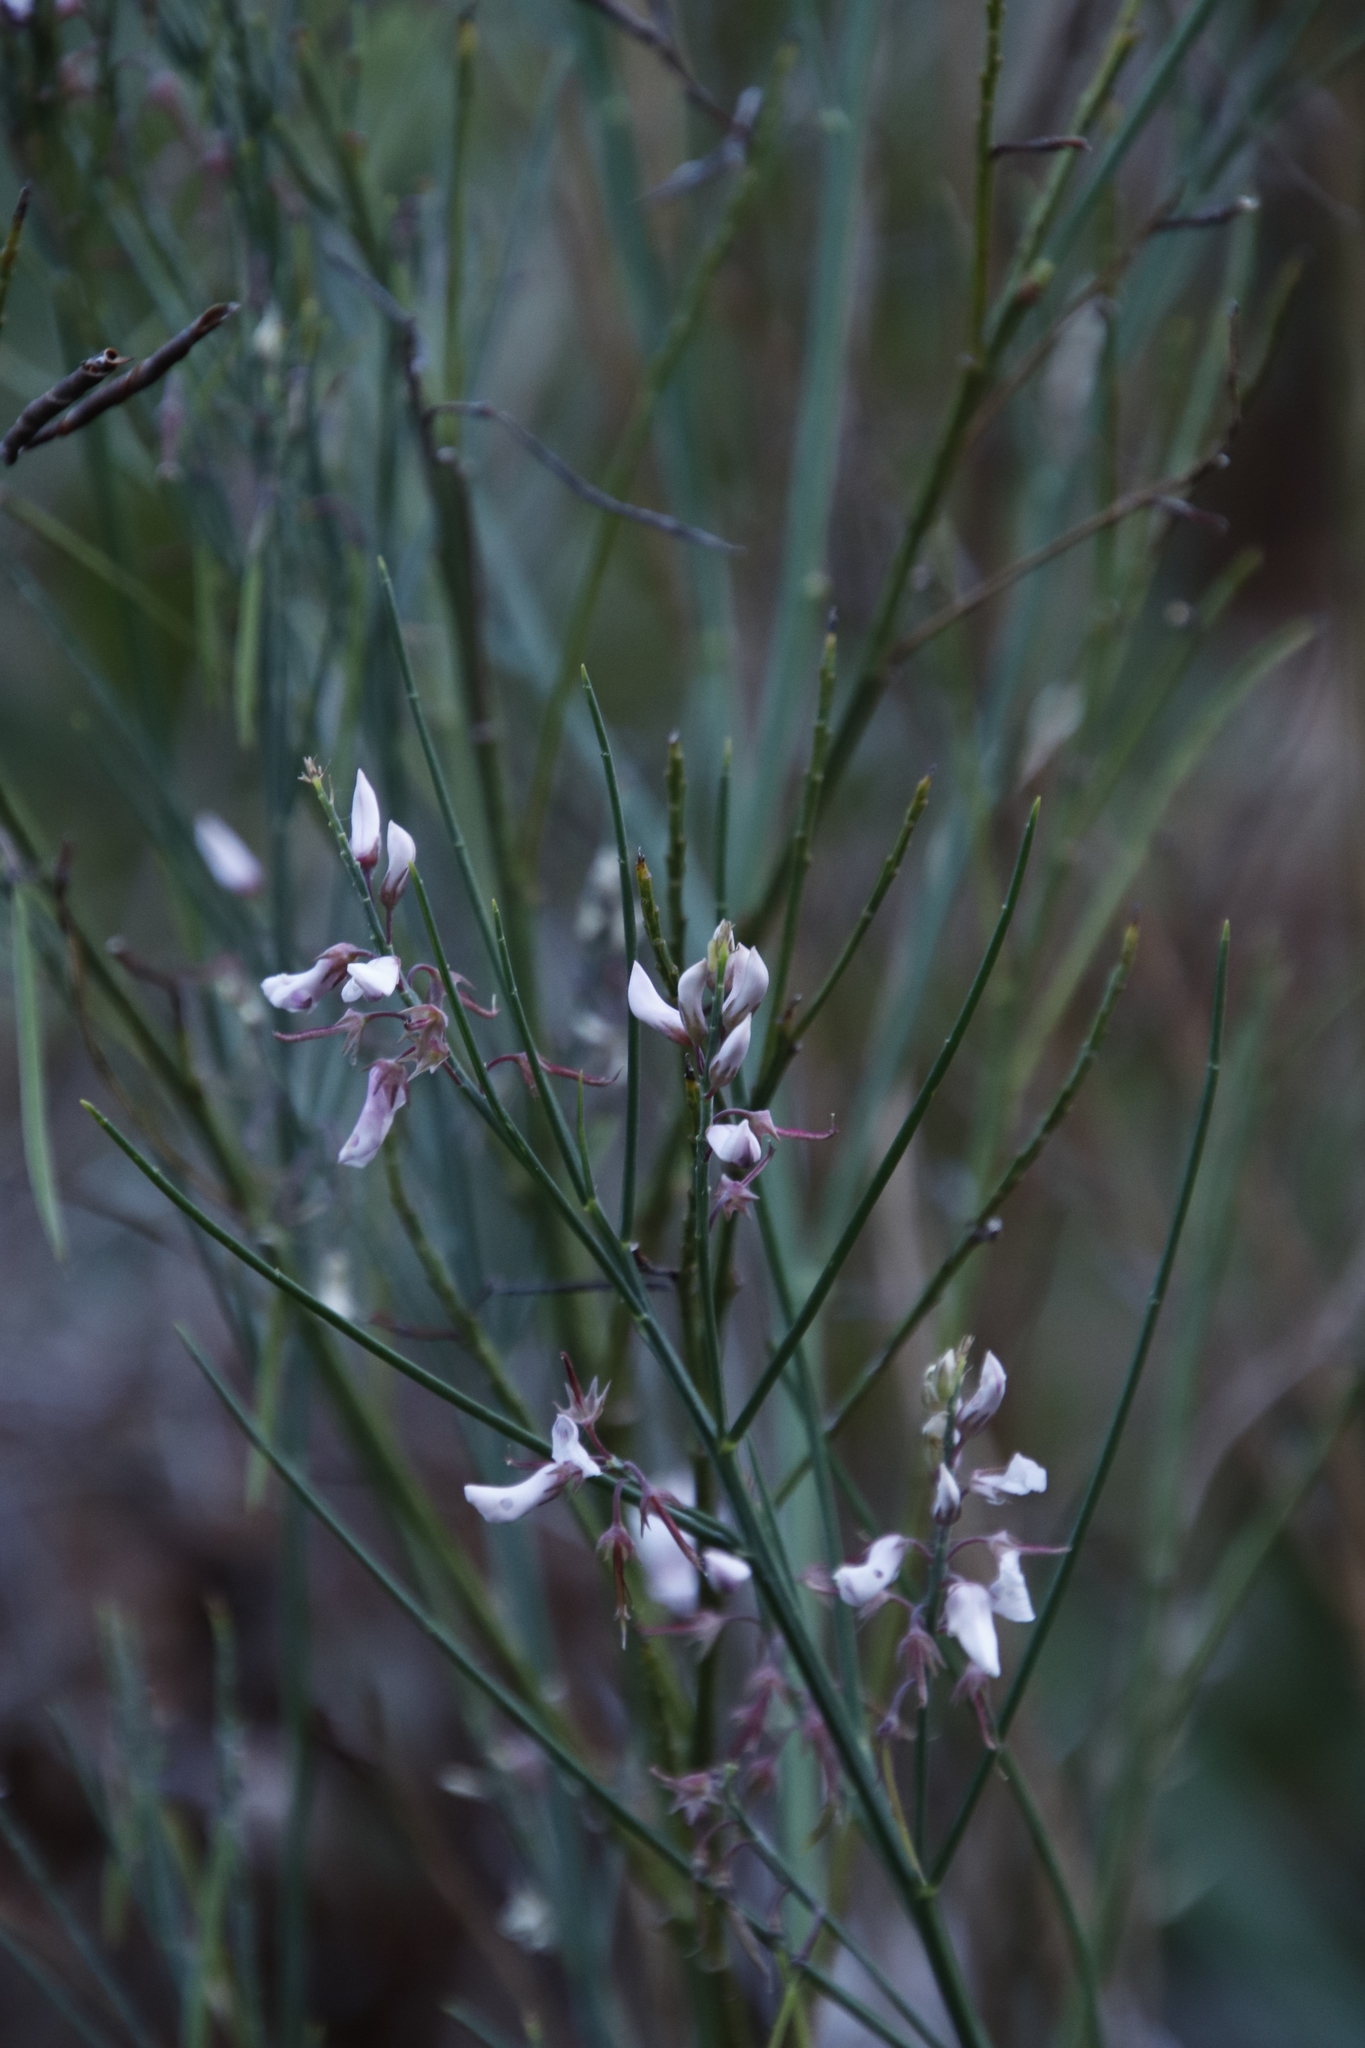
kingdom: Plantae
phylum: Tracheophyta
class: Magnoliopsida
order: Fabales
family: Fabaceae
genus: Indigofera
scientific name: Indigofera filifolia
